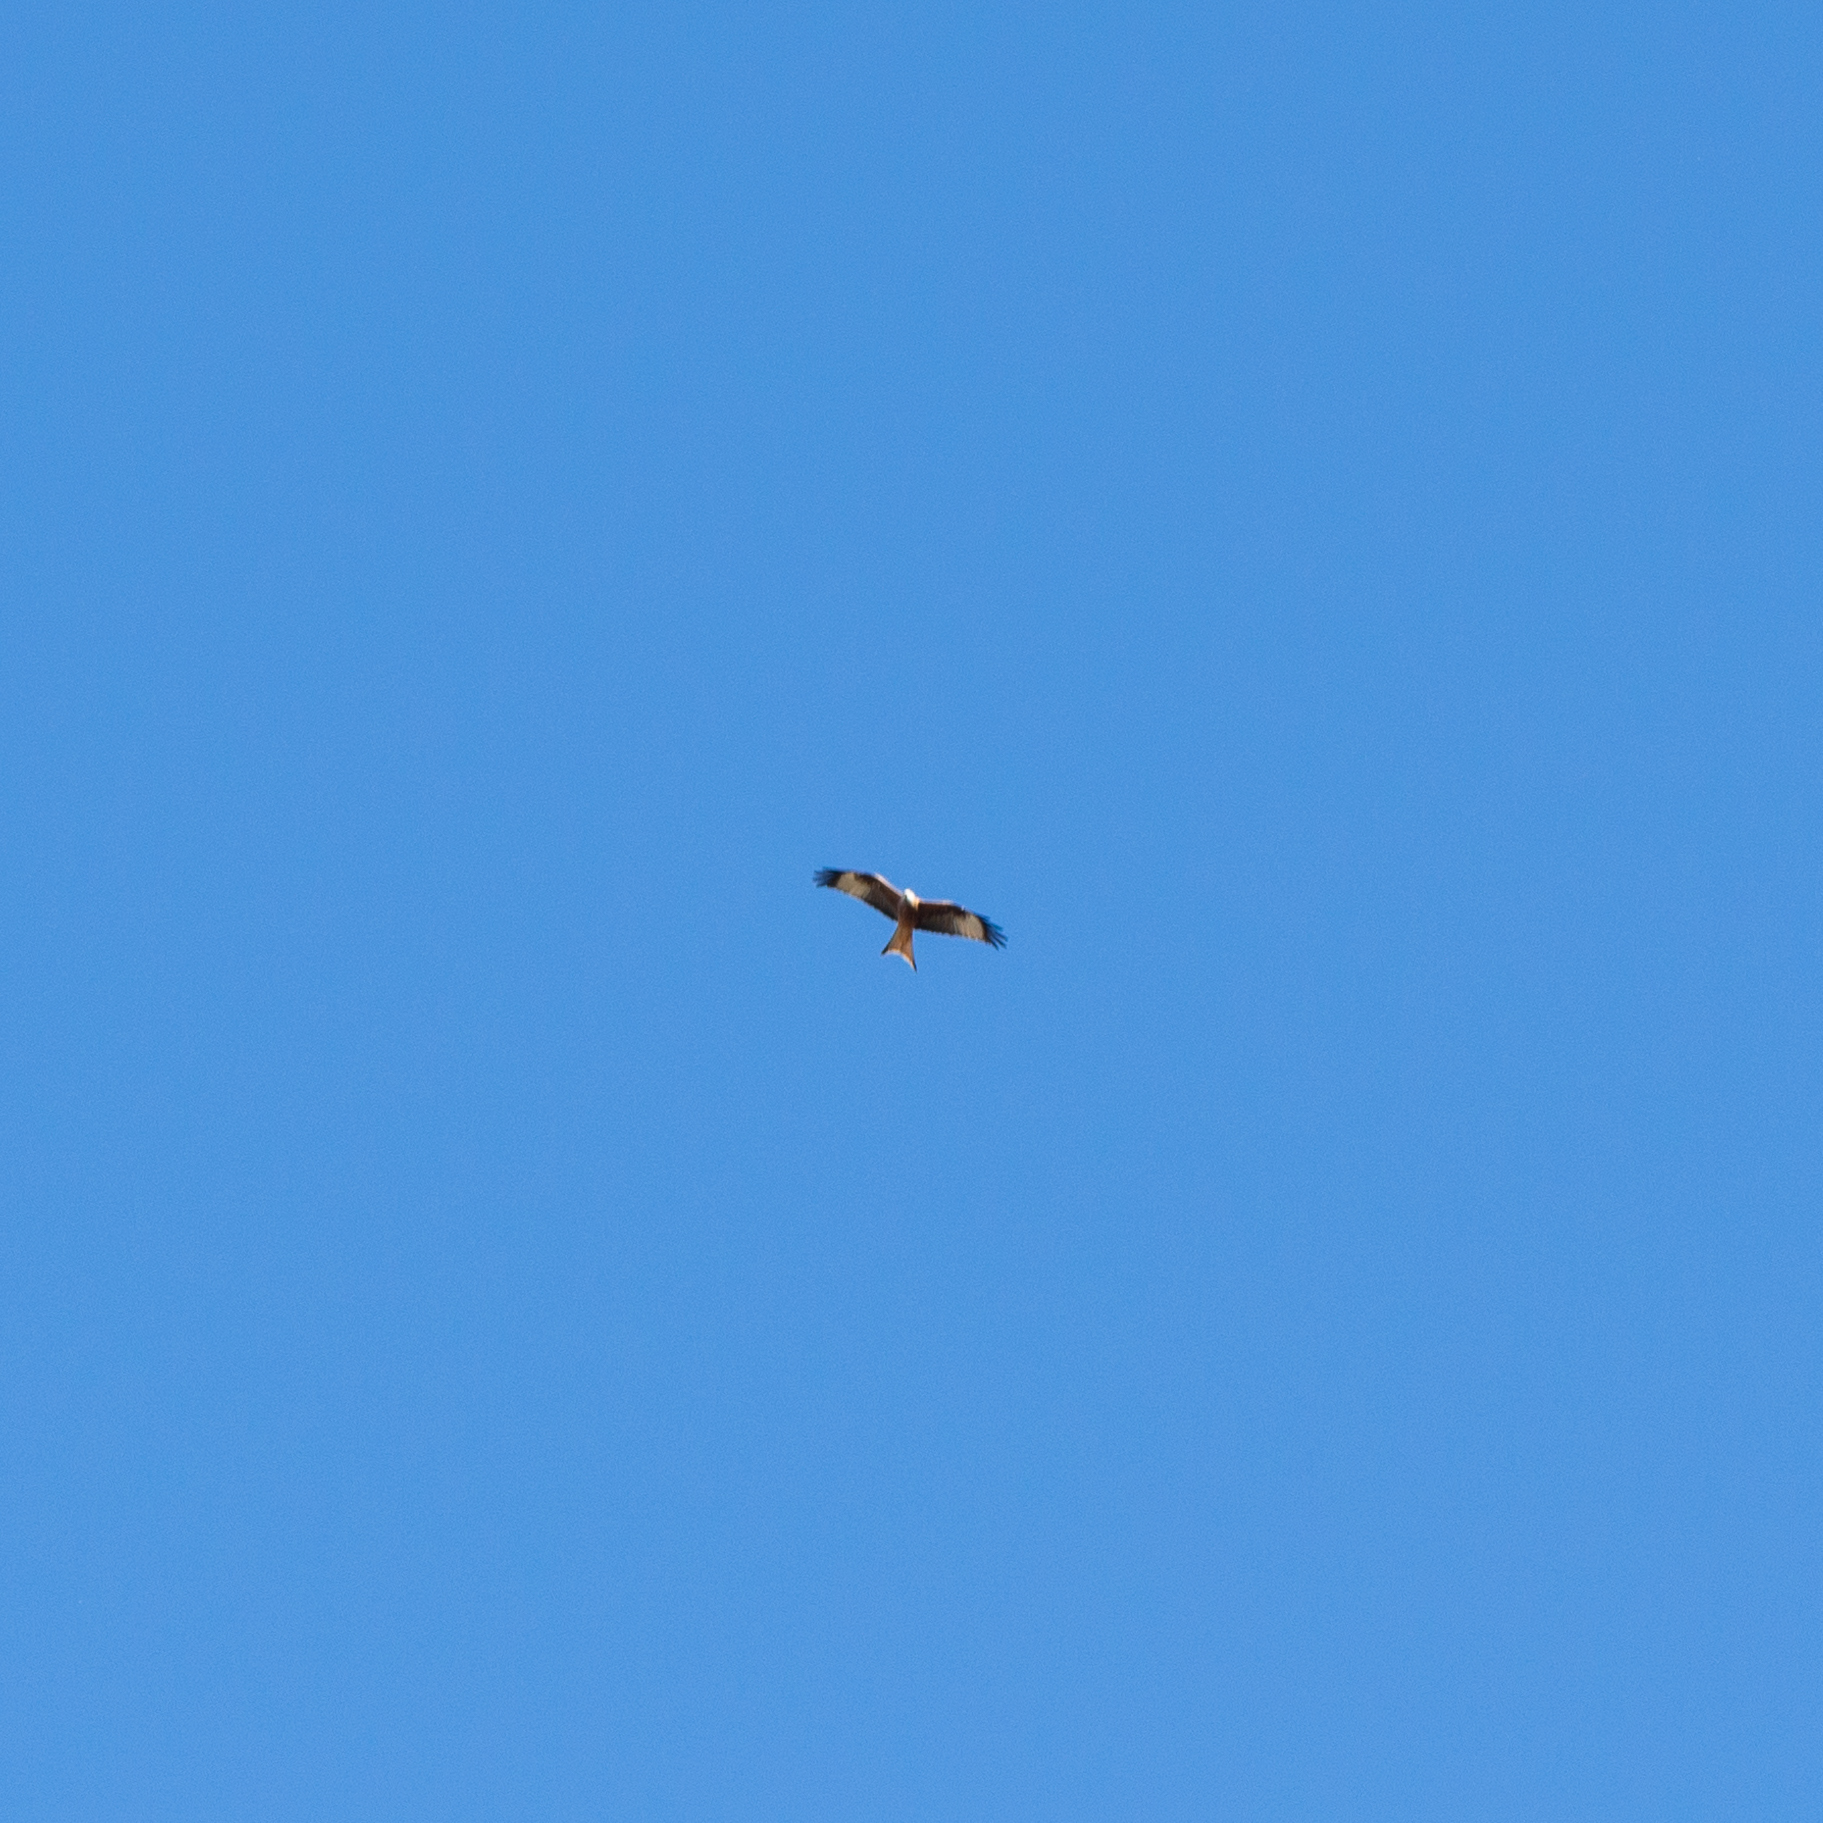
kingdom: Animalia
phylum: Chordata
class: Aves
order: Accipitriformes
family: Accipitridae
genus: Milvus
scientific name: Milvus milvus
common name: Red kite
